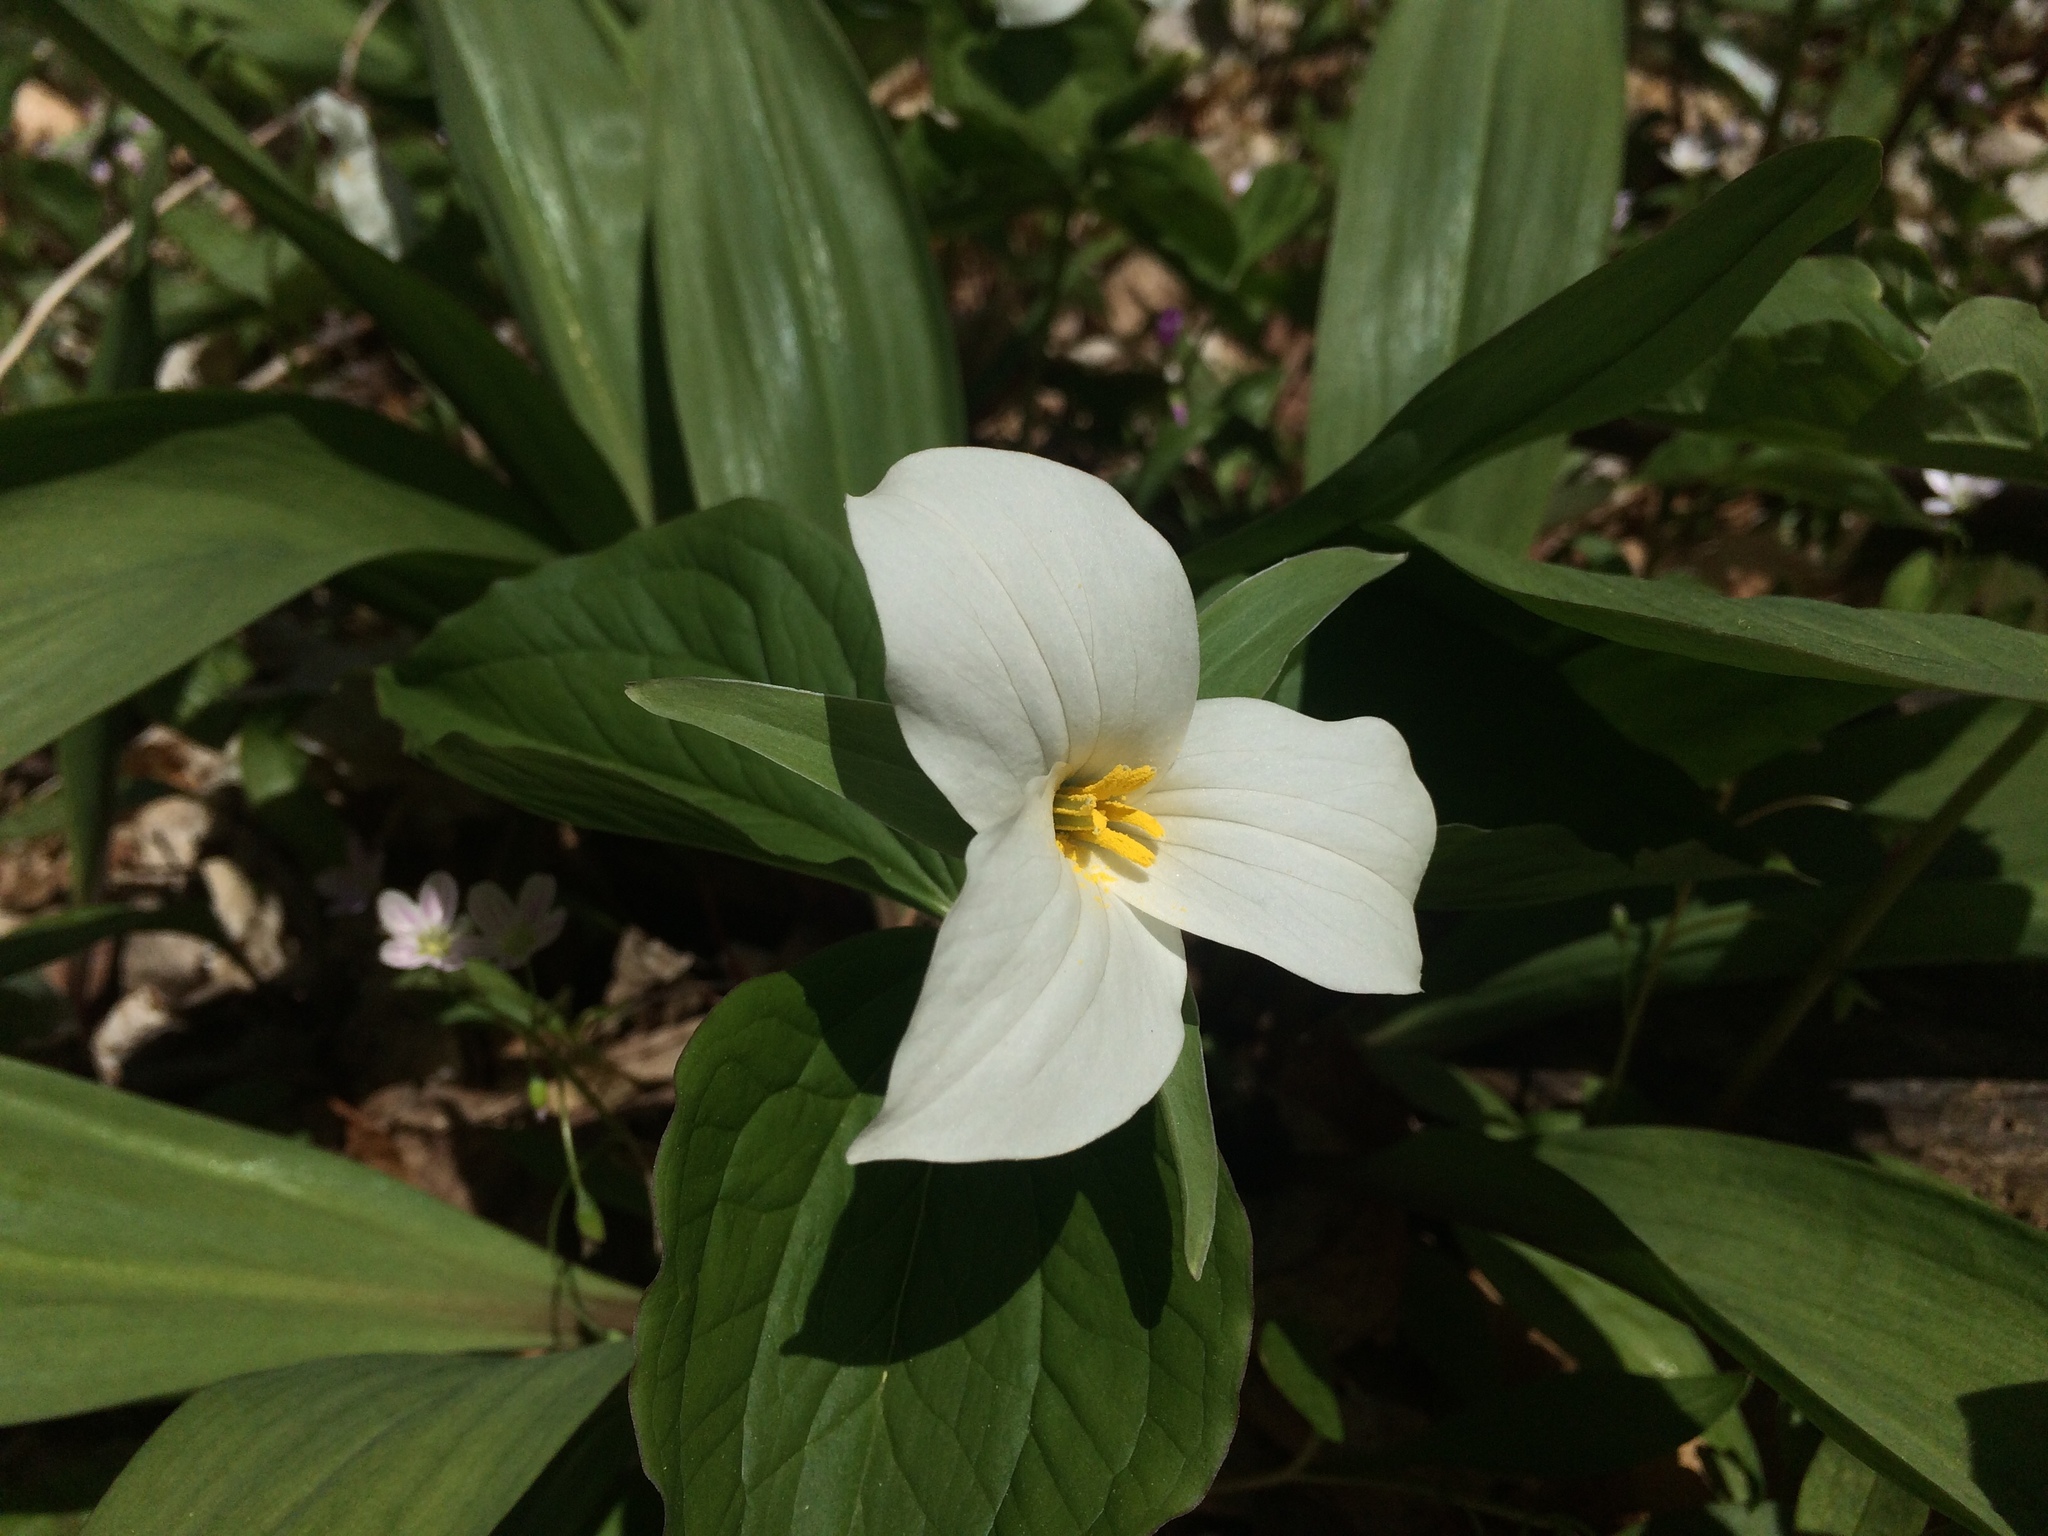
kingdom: Plantae
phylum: Tracheophyta
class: Liliopsida
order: Liliales
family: Melanthiaceae
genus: Trillium
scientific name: Trillium grandiflorum
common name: Great white trillium
